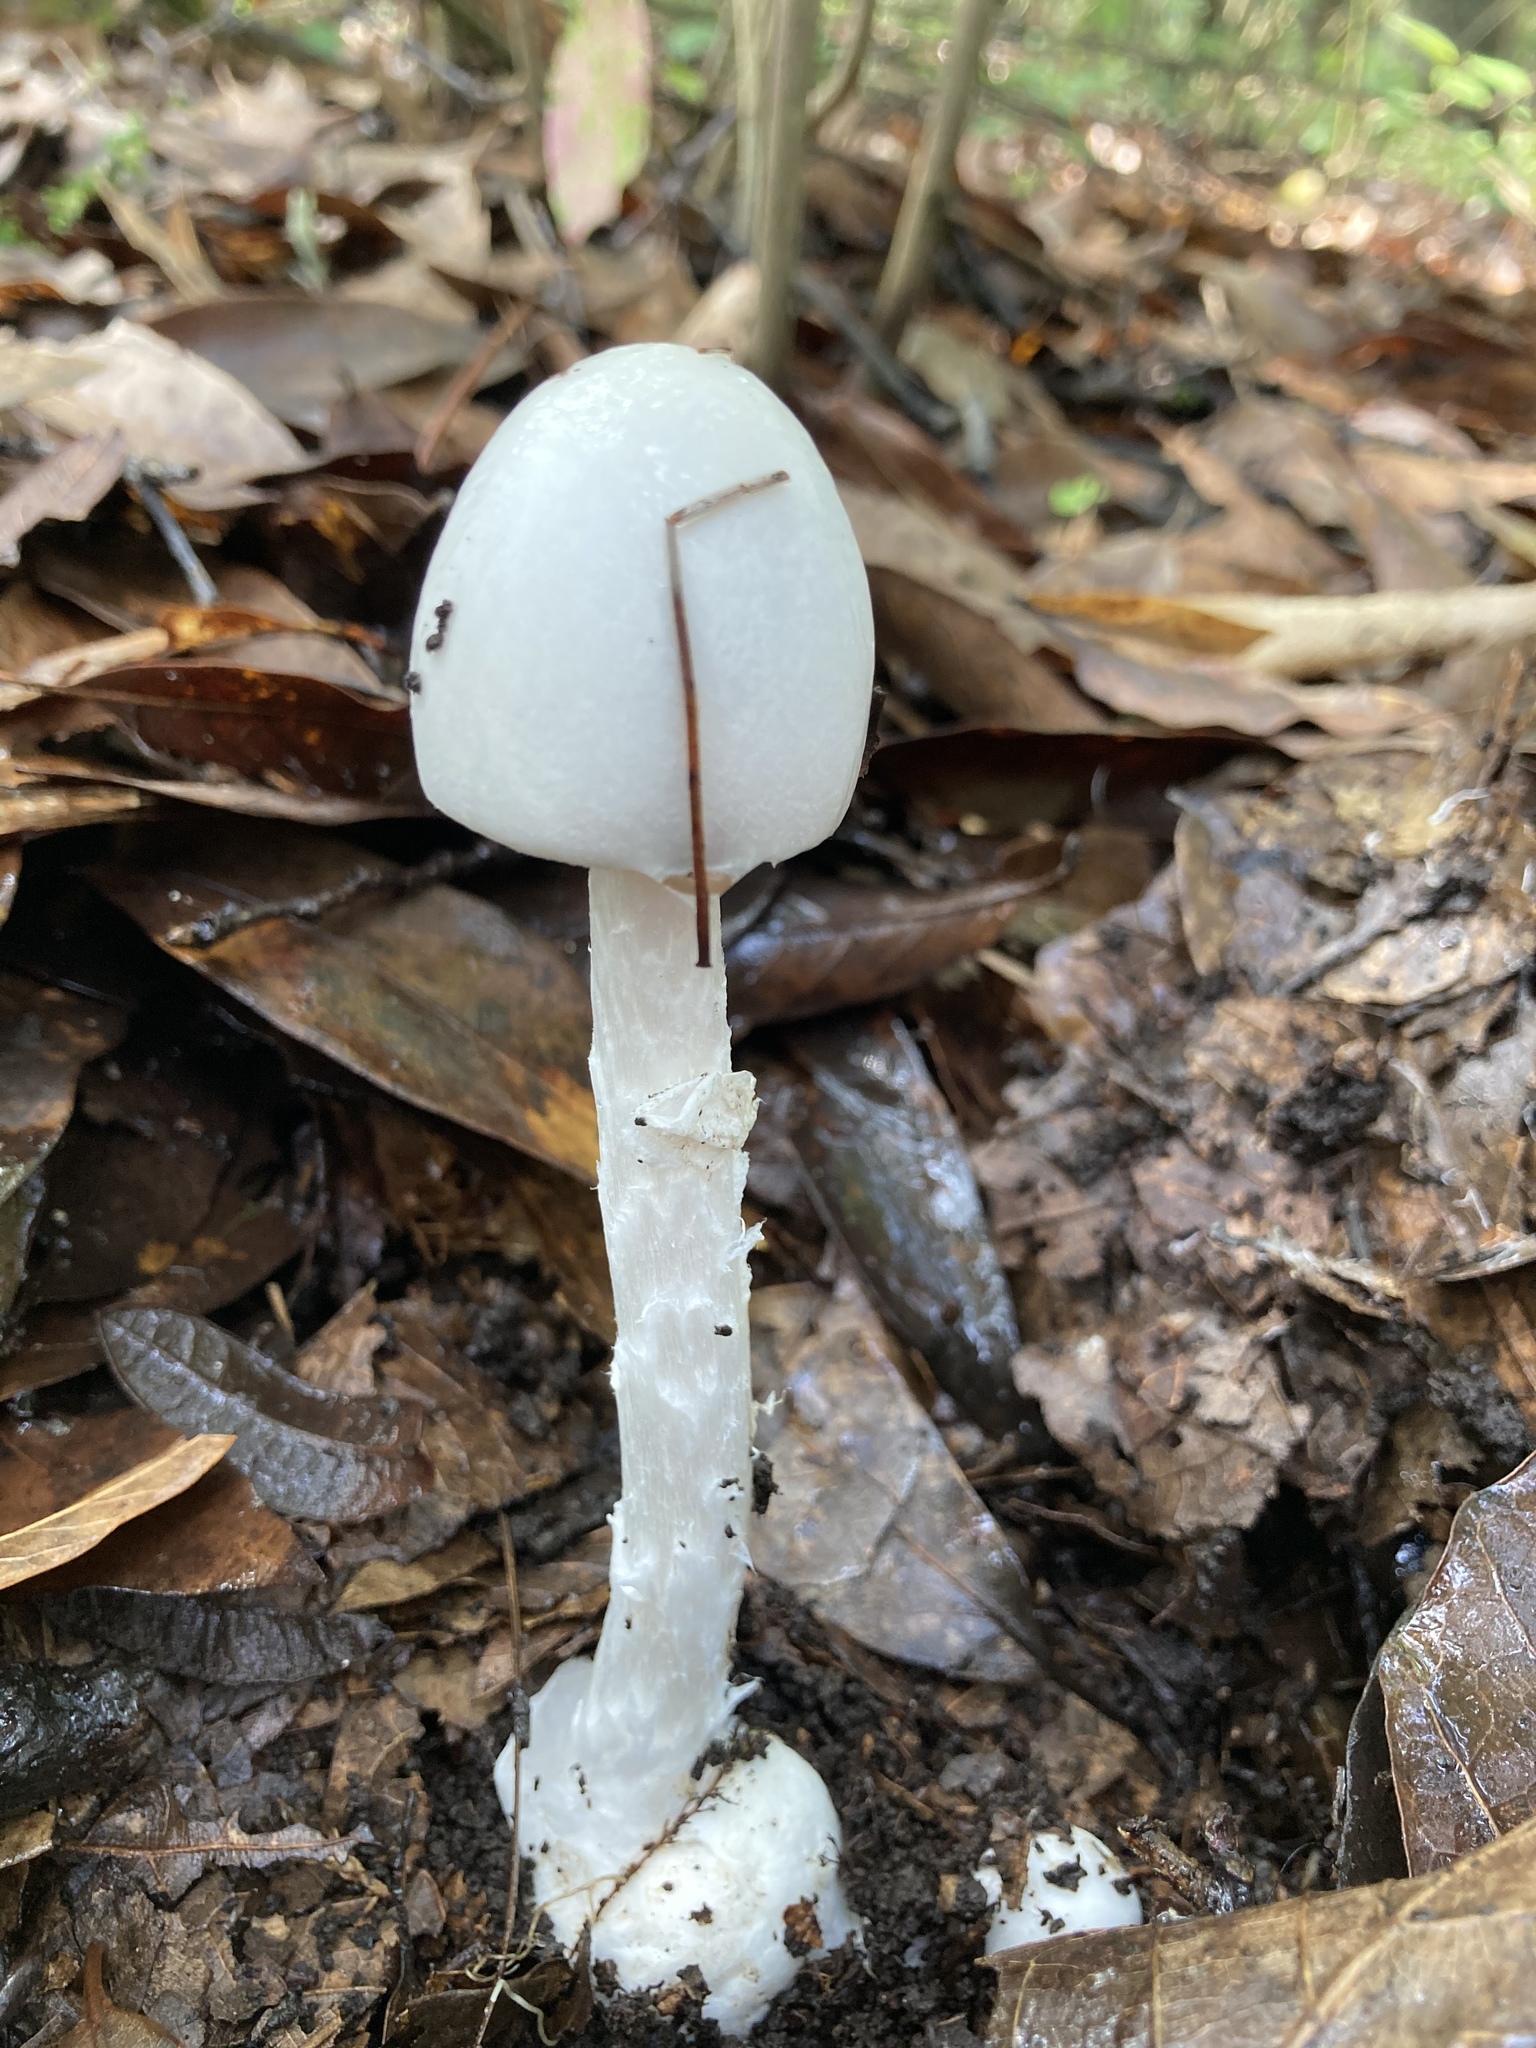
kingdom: Fungi
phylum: Basidiomycota
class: Agaricomycetes
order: Agaricales
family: Amanitaceae
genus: Amanita
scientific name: Amanita bisporigera
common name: Eastern north american destroying angel
